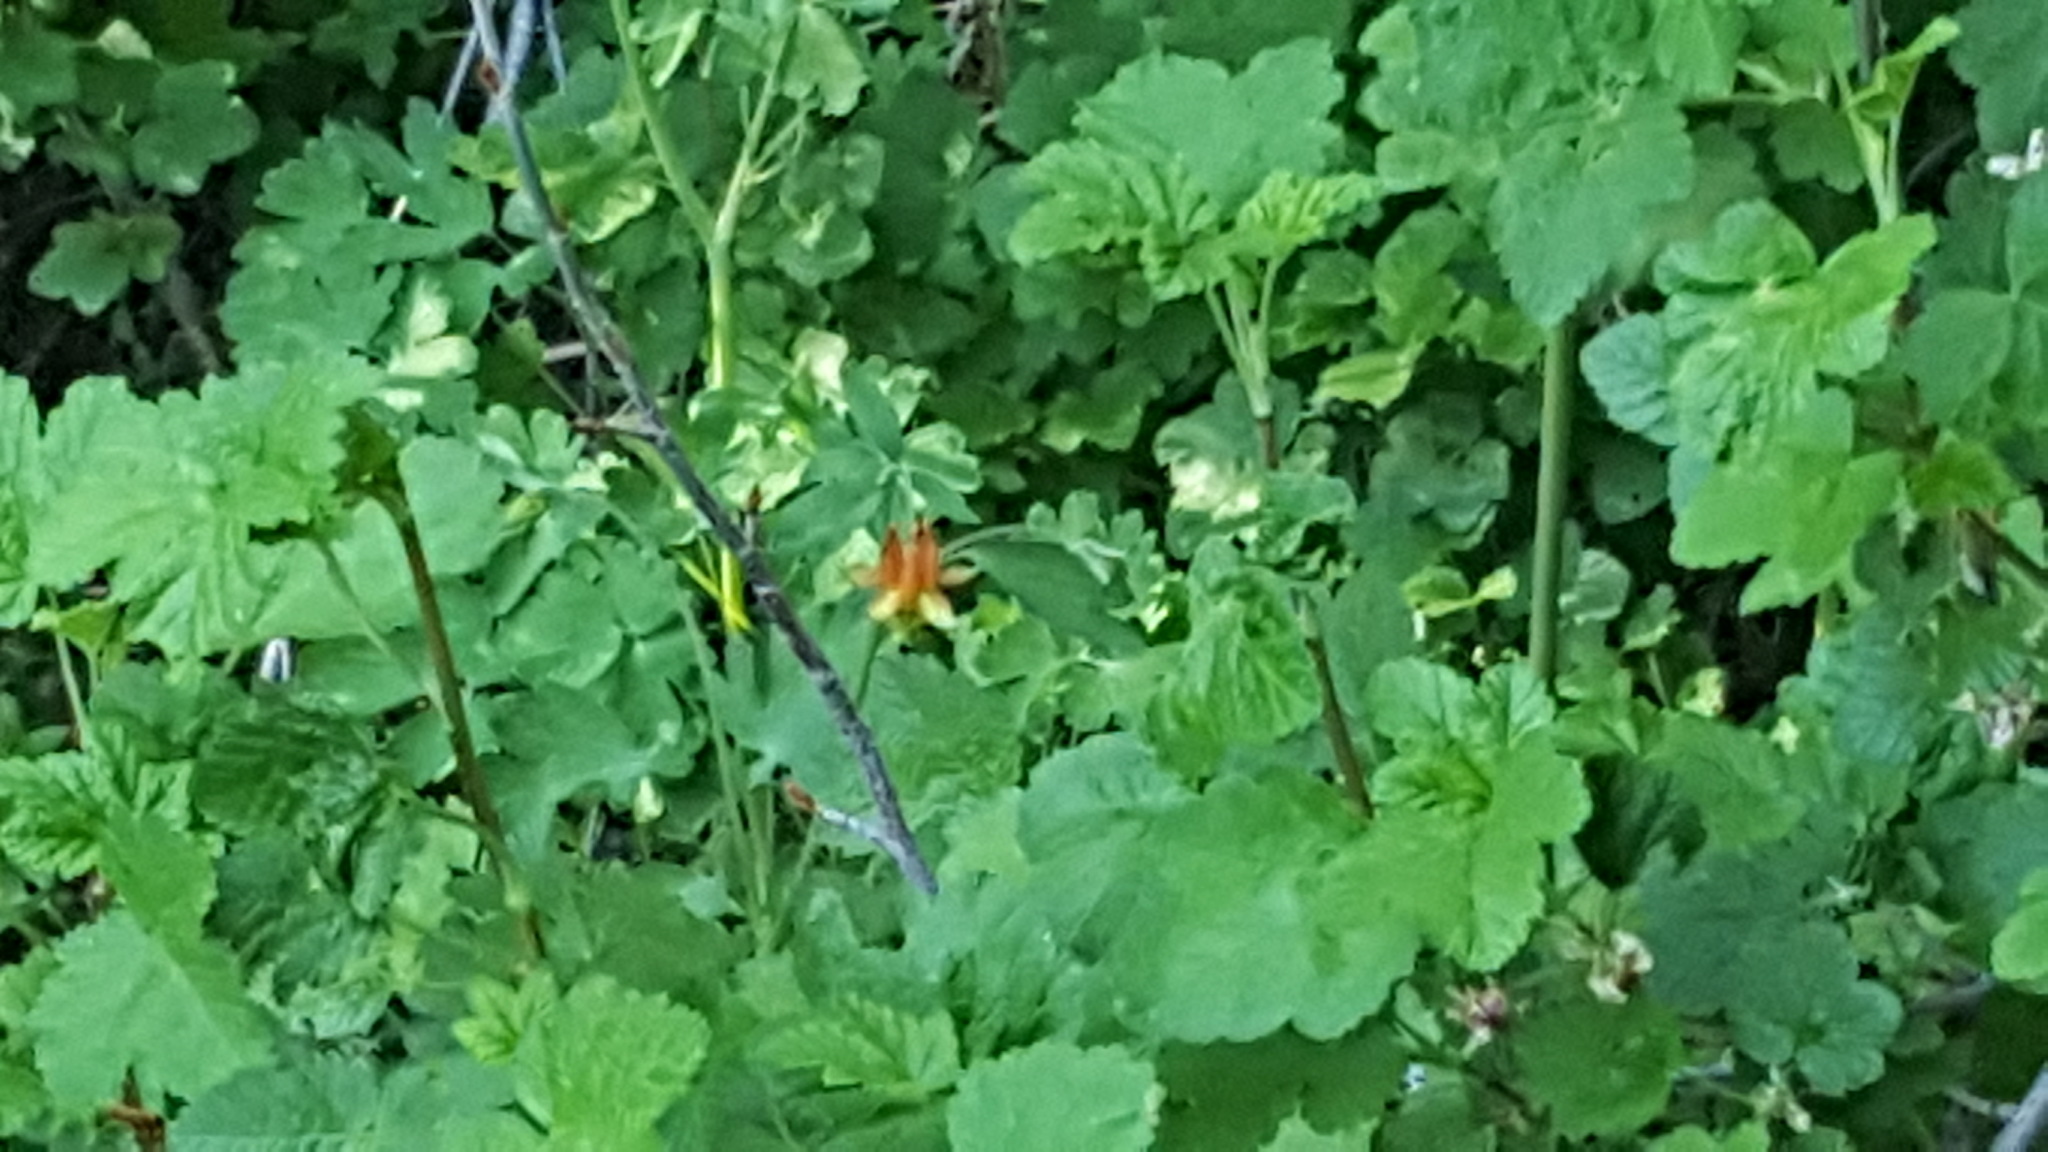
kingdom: Plantae
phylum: Tracheophyta
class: Magnoliopsida
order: Ranunculales
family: Ranunculaceae
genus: Aquilegia
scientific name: Aquilegia formosa
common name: Sitka columbine
